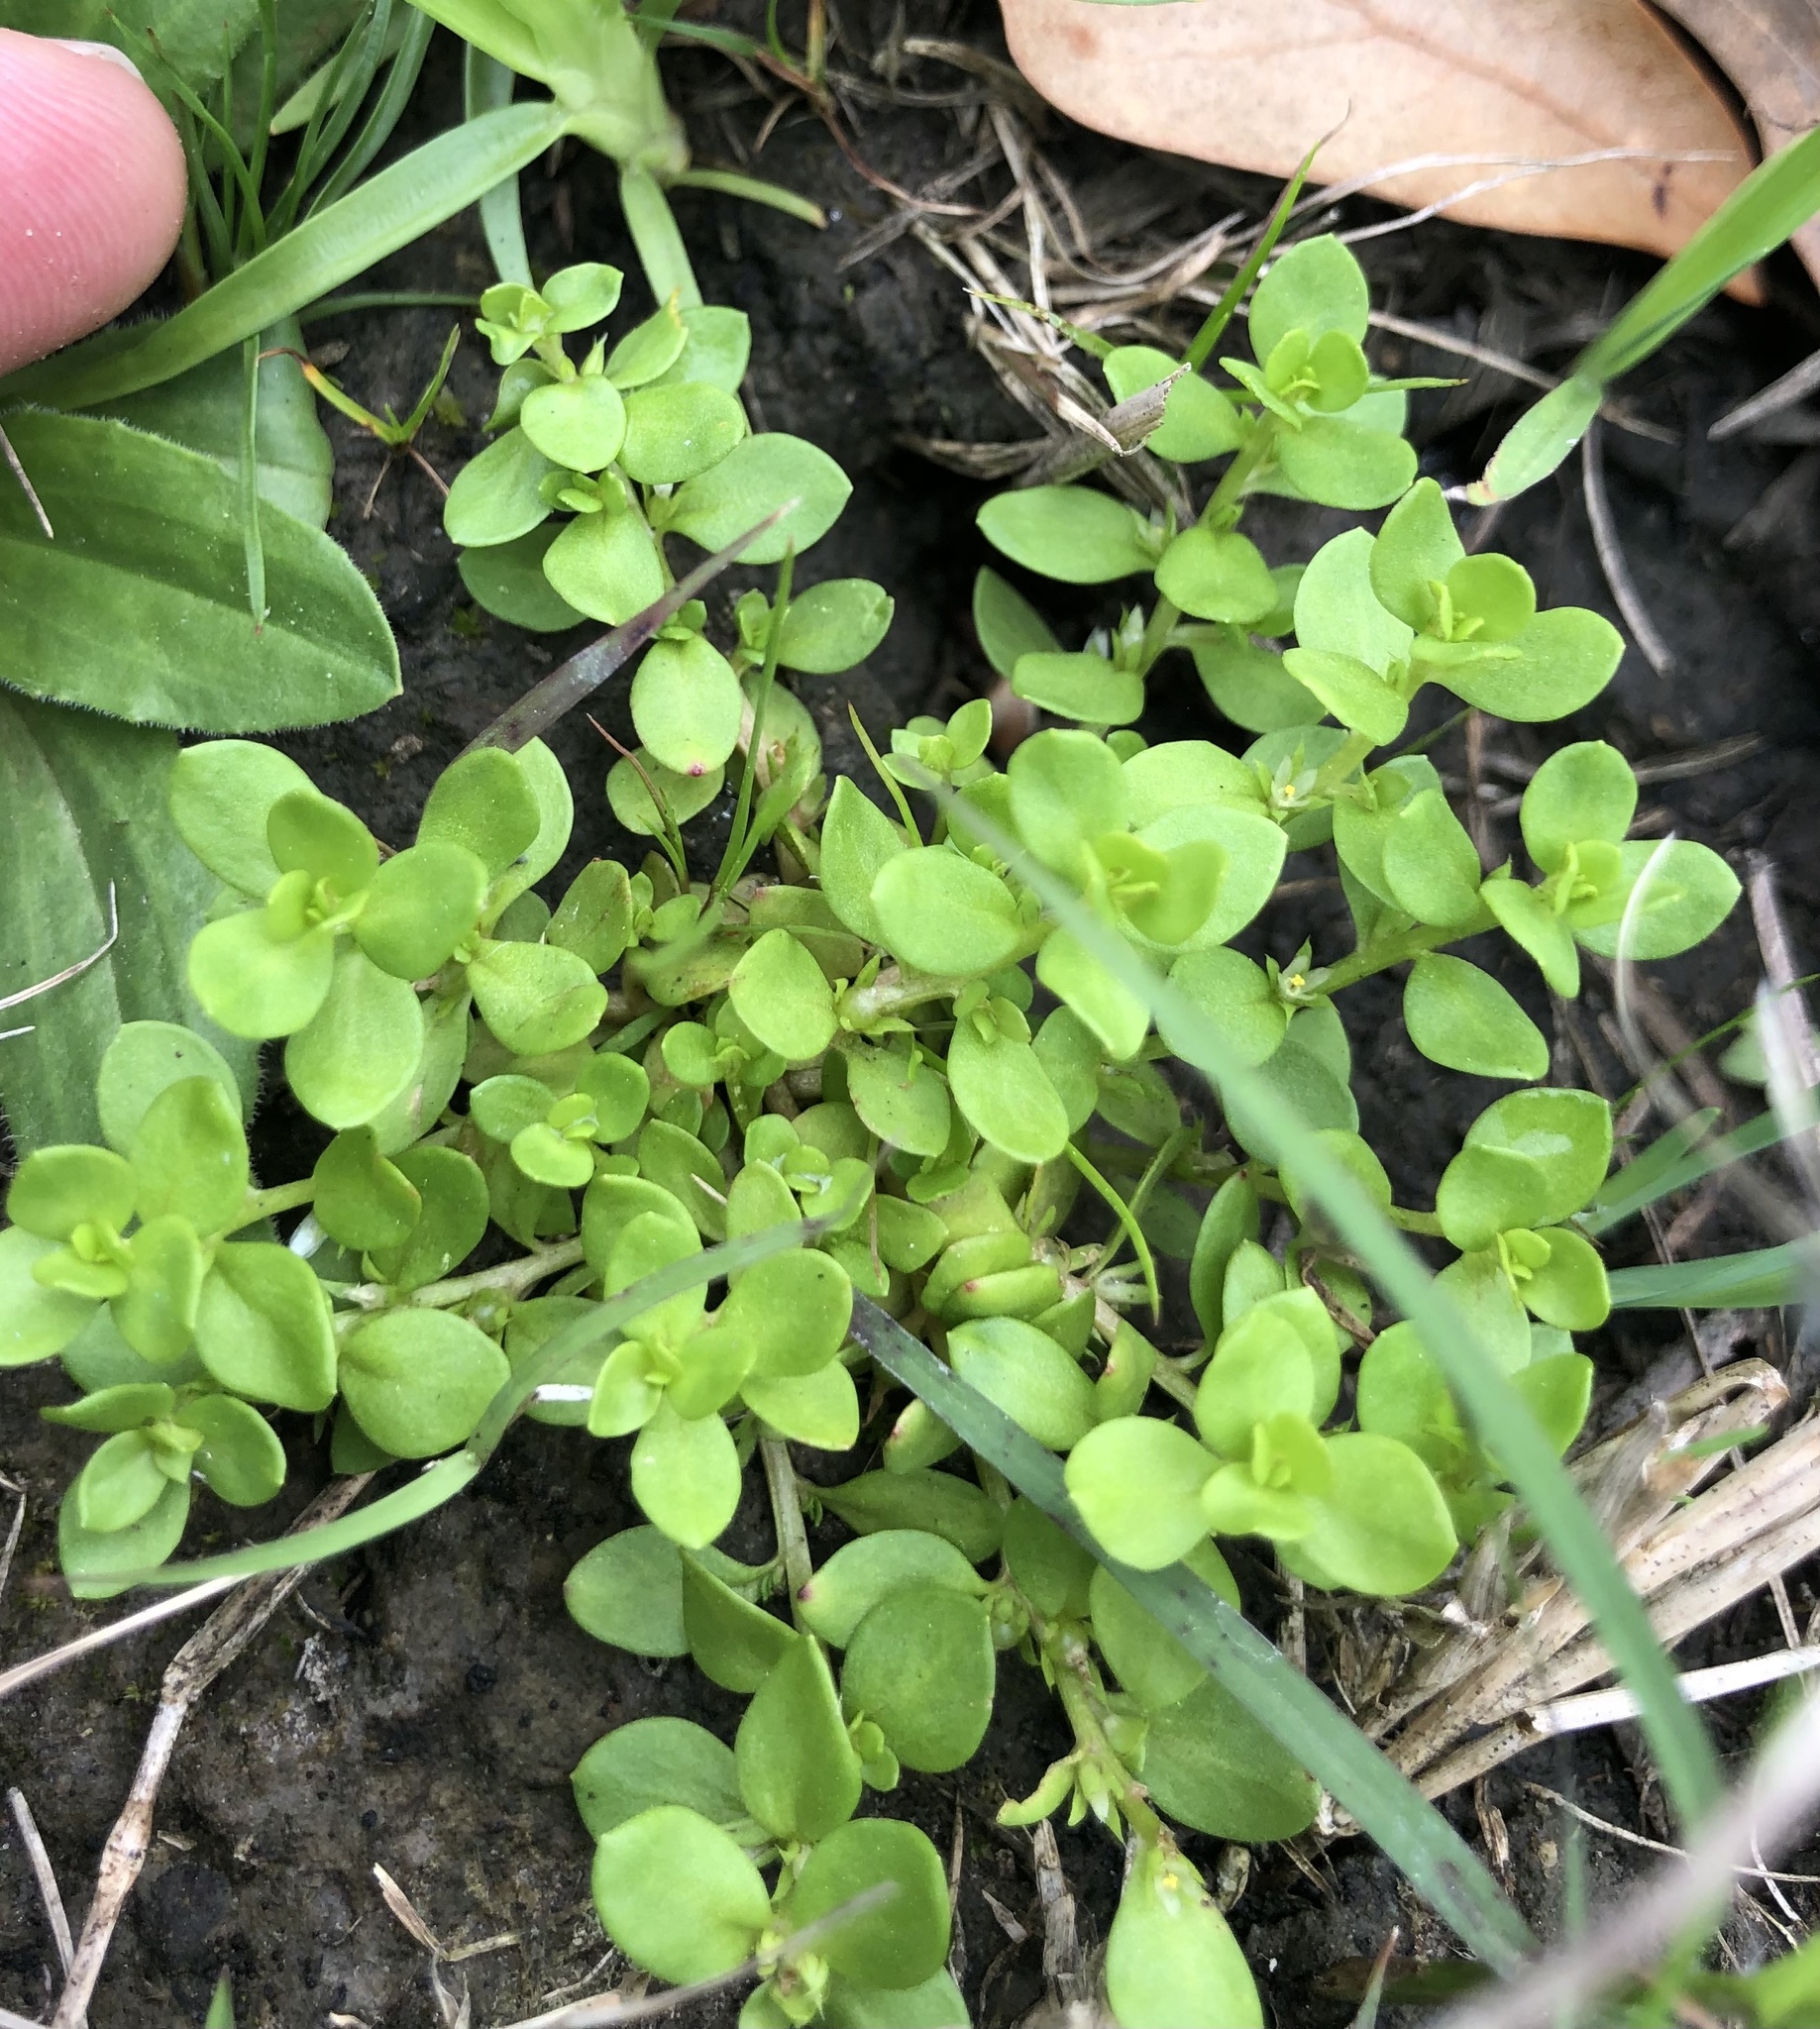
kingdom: Plantae
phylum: Tracheophyta
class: Magnoliopsida
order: Ericales
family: Primulaceae
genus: Lysimachia
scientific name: Lysimachia minima
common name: Chaffweed
